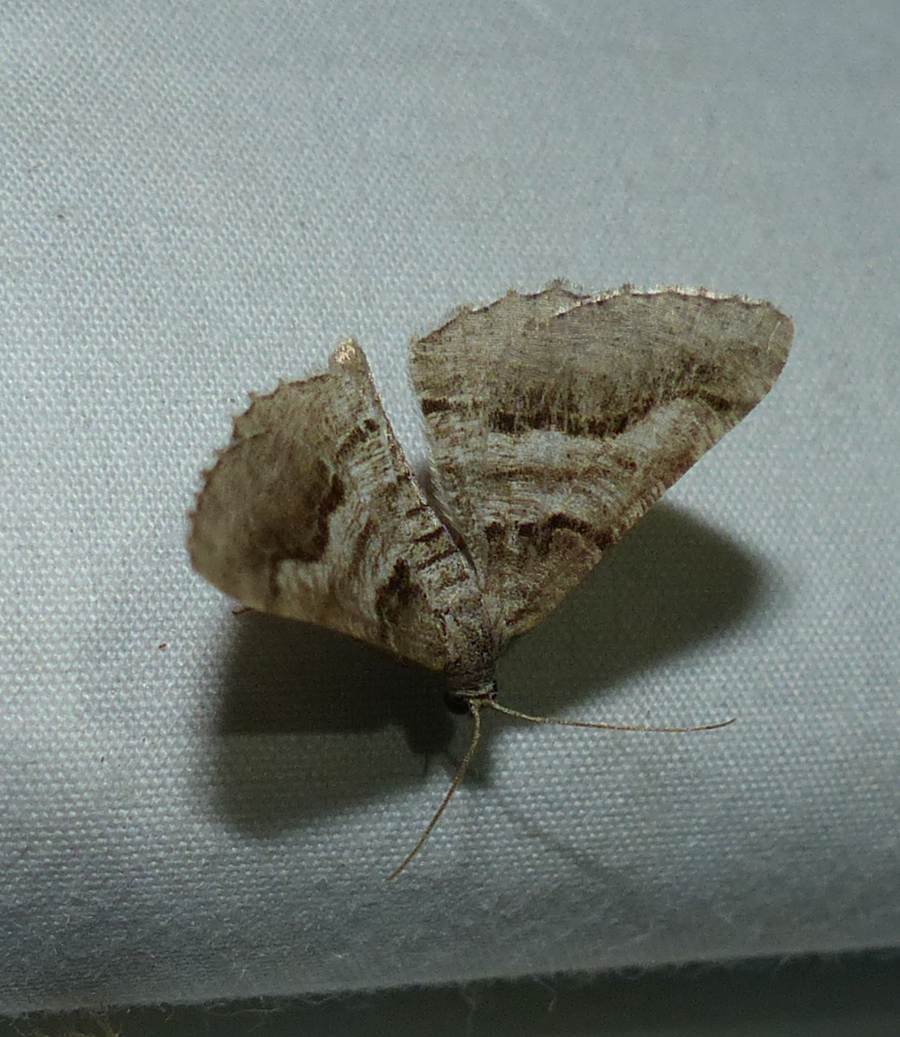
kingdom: Animalia
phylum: Arthropoda
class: Insecta
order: Lepidoptera
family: Geometridae
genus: Digrammia
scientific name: Digrammia continuata
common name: Curve-lined angle
